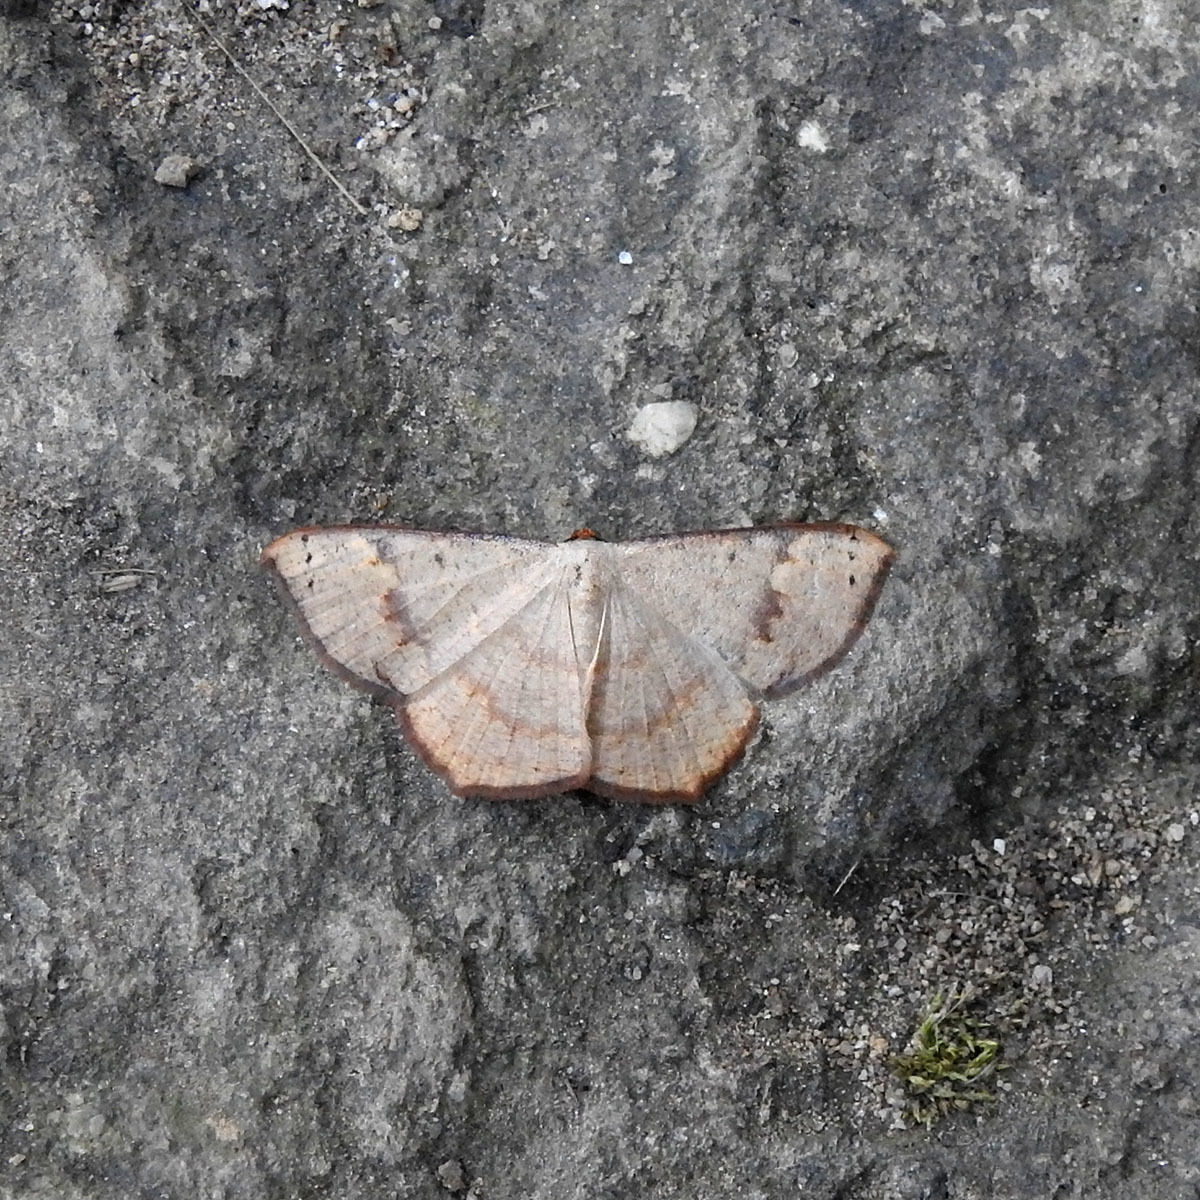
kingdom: Animalia
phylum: Arthropoda
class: Insecta
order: Lepidoptera
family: Geometridae
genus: Peratostega
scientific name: Peratostega deletaria
